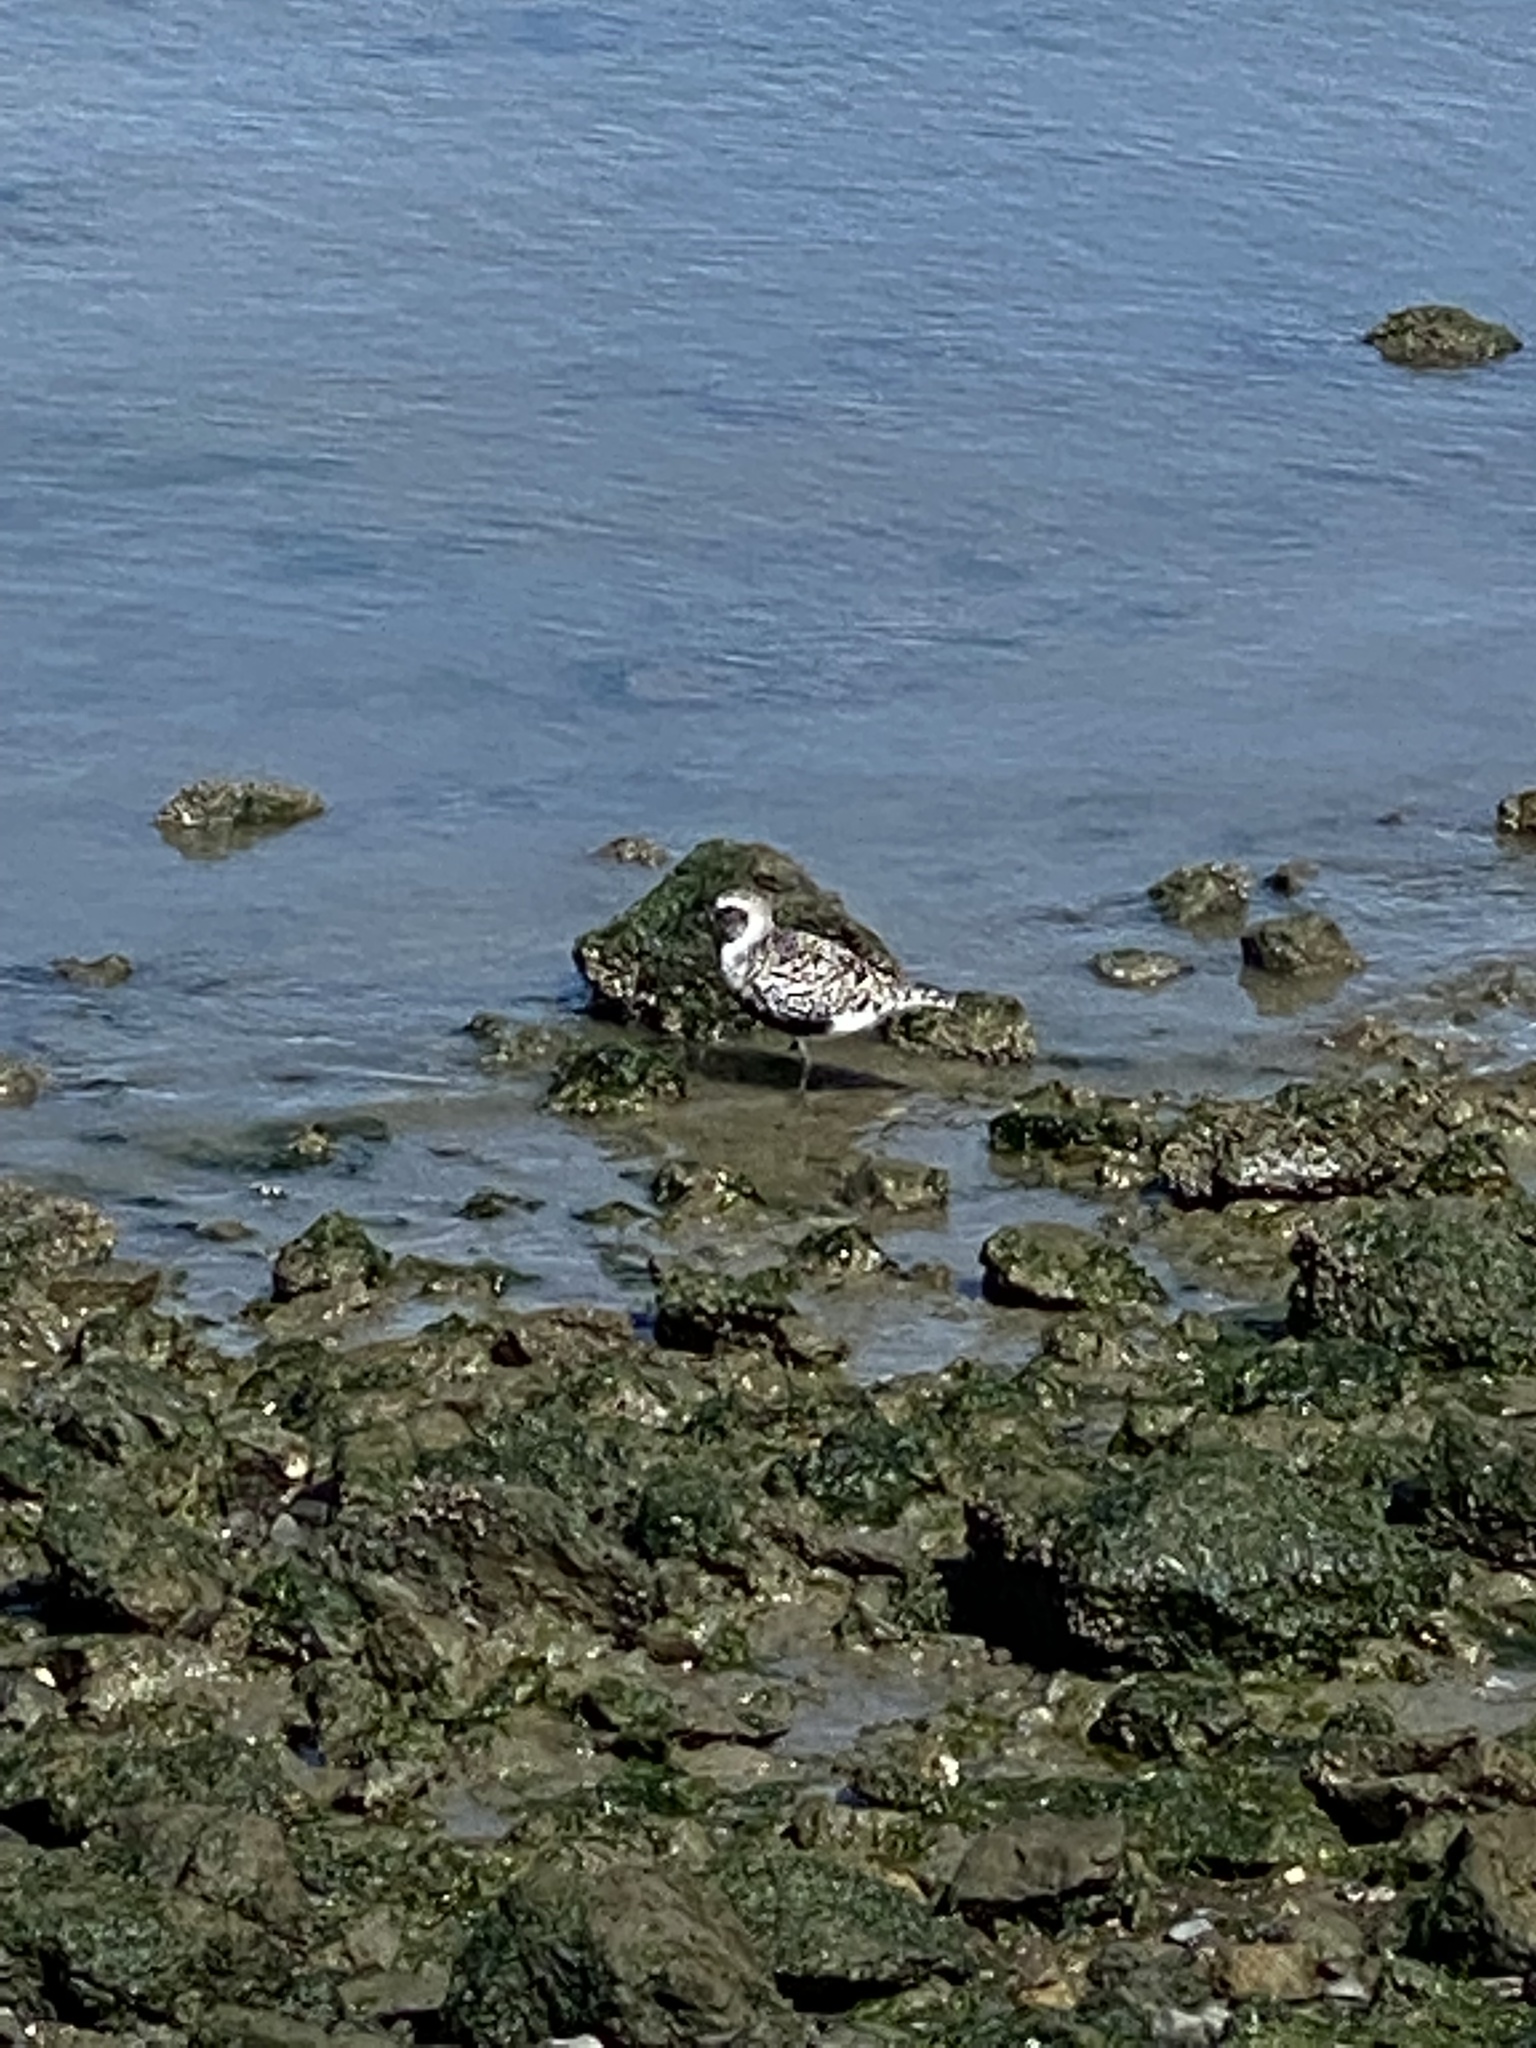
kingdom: Animalia
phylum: Chordata
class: Aves
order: Charadriiformes
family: Charadriidae
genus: Pluvialis
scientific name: Pluvialis squatarola
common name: Grey plover
